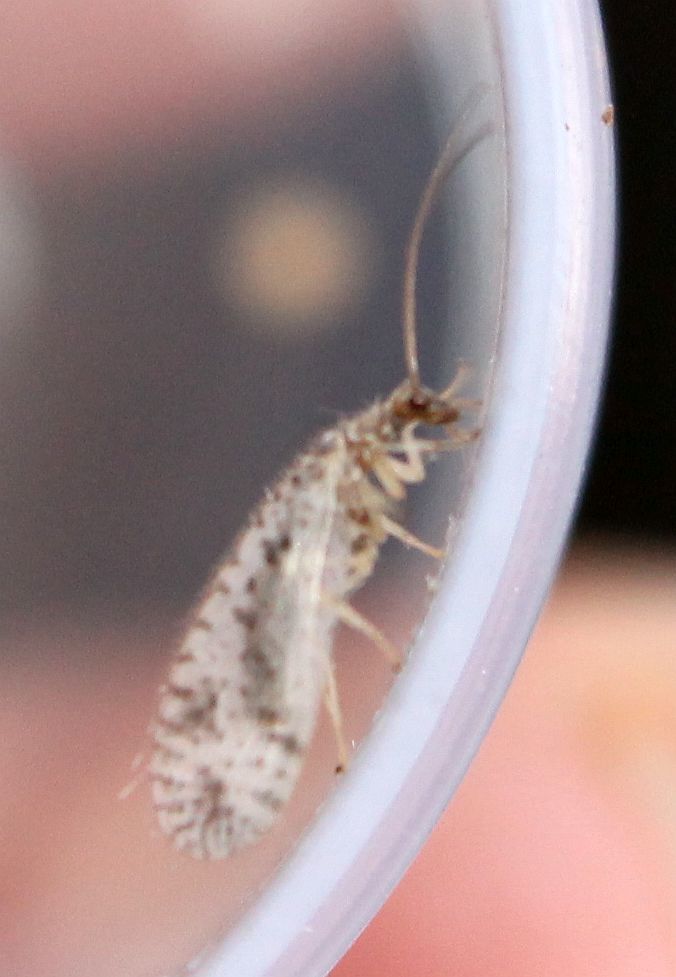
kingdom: Animalia
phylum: Arthropoda
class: Insecta
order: Neuroptera
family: Hemerobiidae
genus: Micromus
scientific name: Micromus variegatus
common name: Brown lacewing
